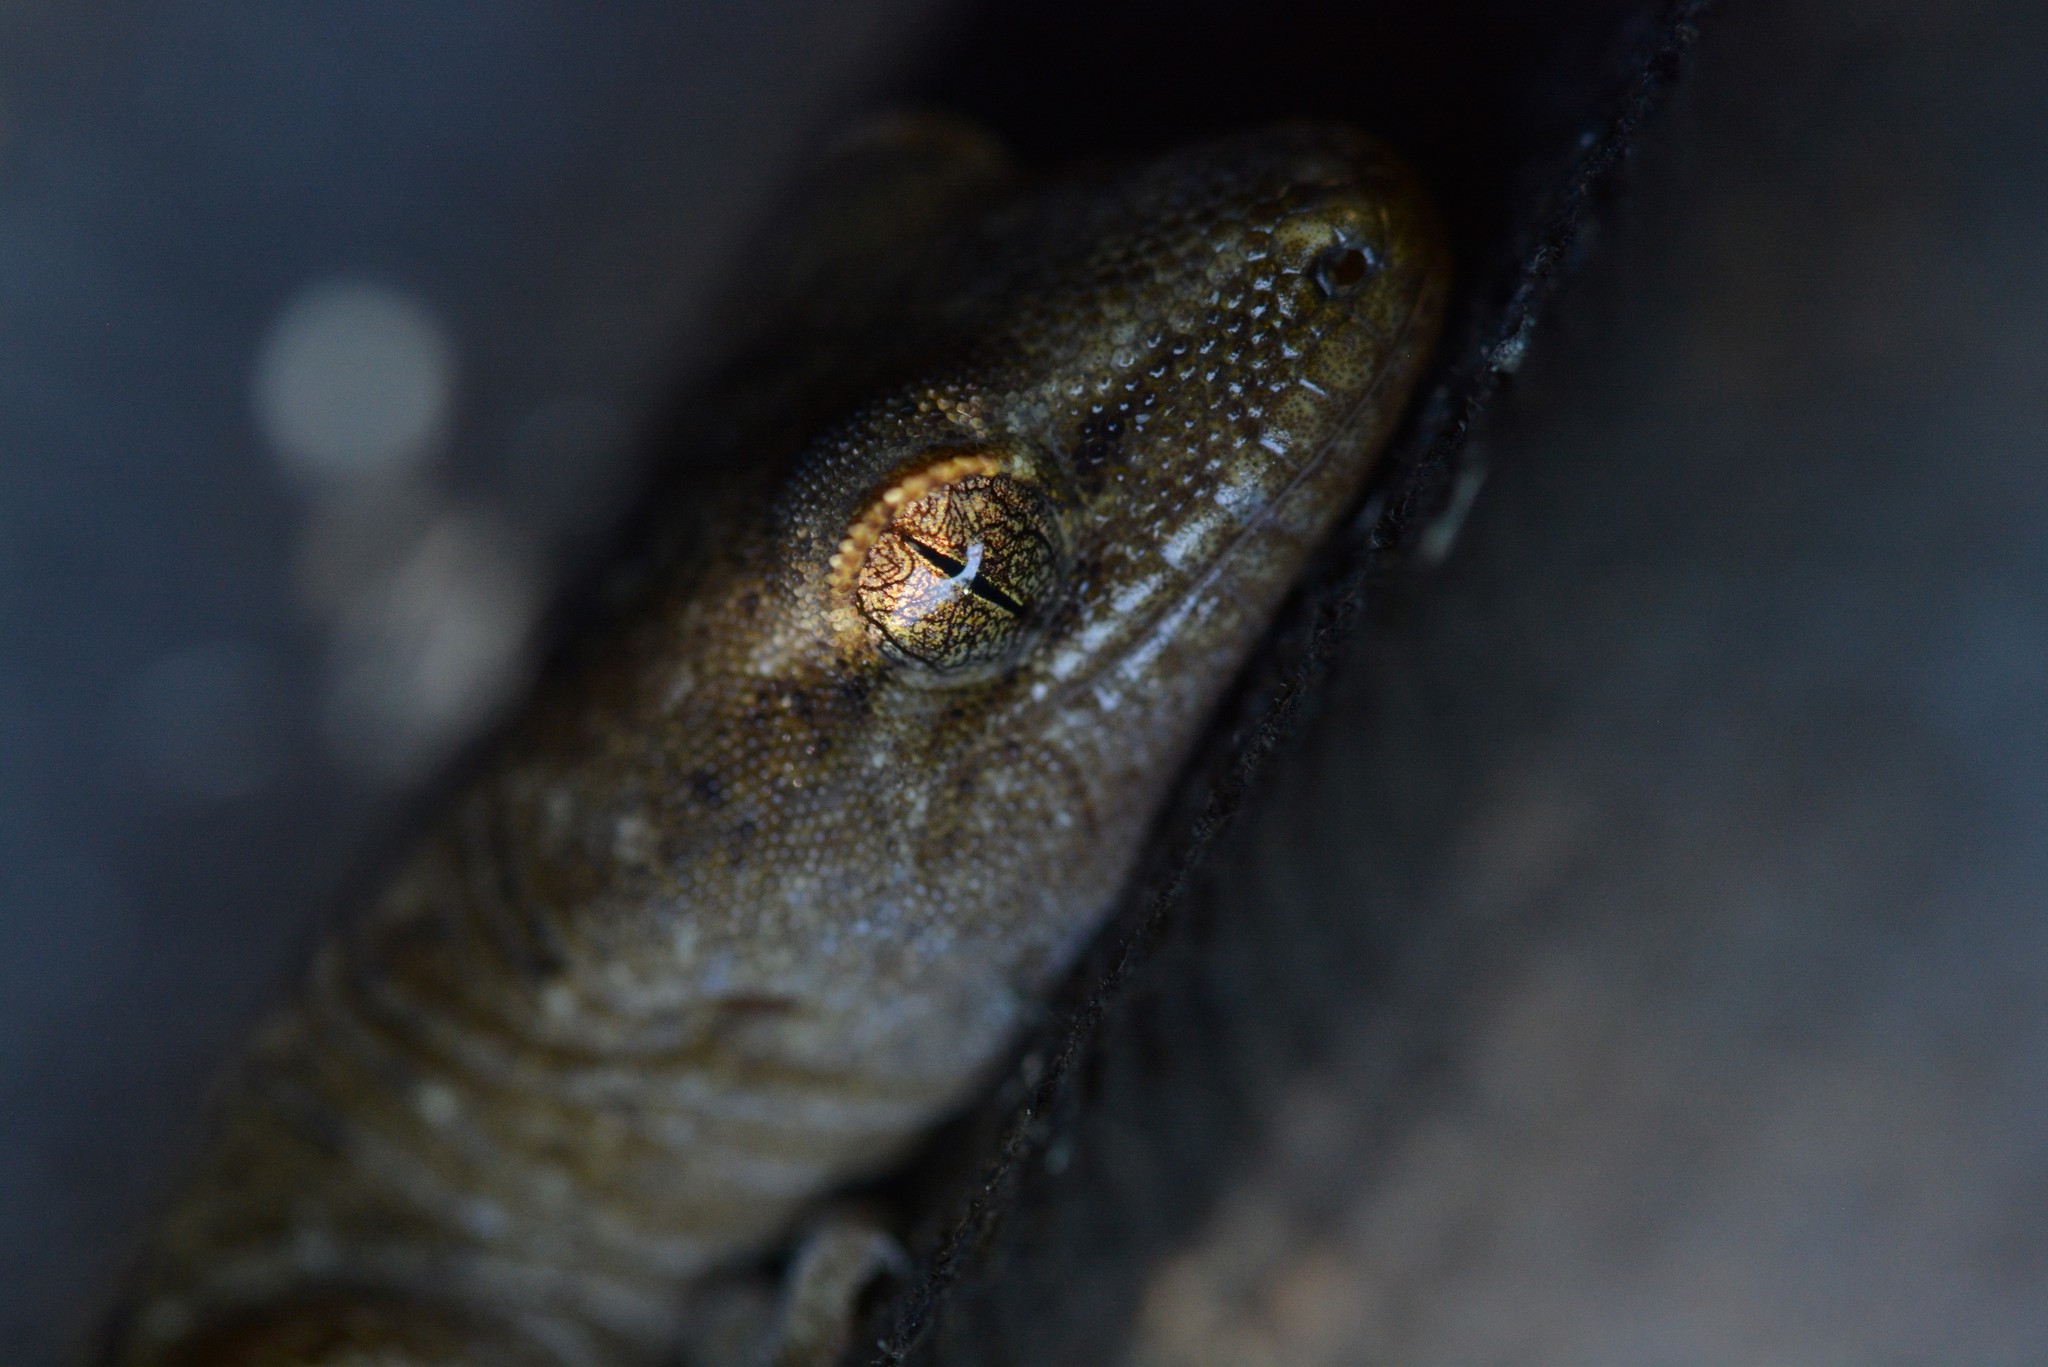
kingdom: Animalia
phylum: Chordata
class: Squamata
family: Diplodactylidae
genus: Woodworthia
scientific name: Woodworthia maculata
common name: Raukawa gecko
